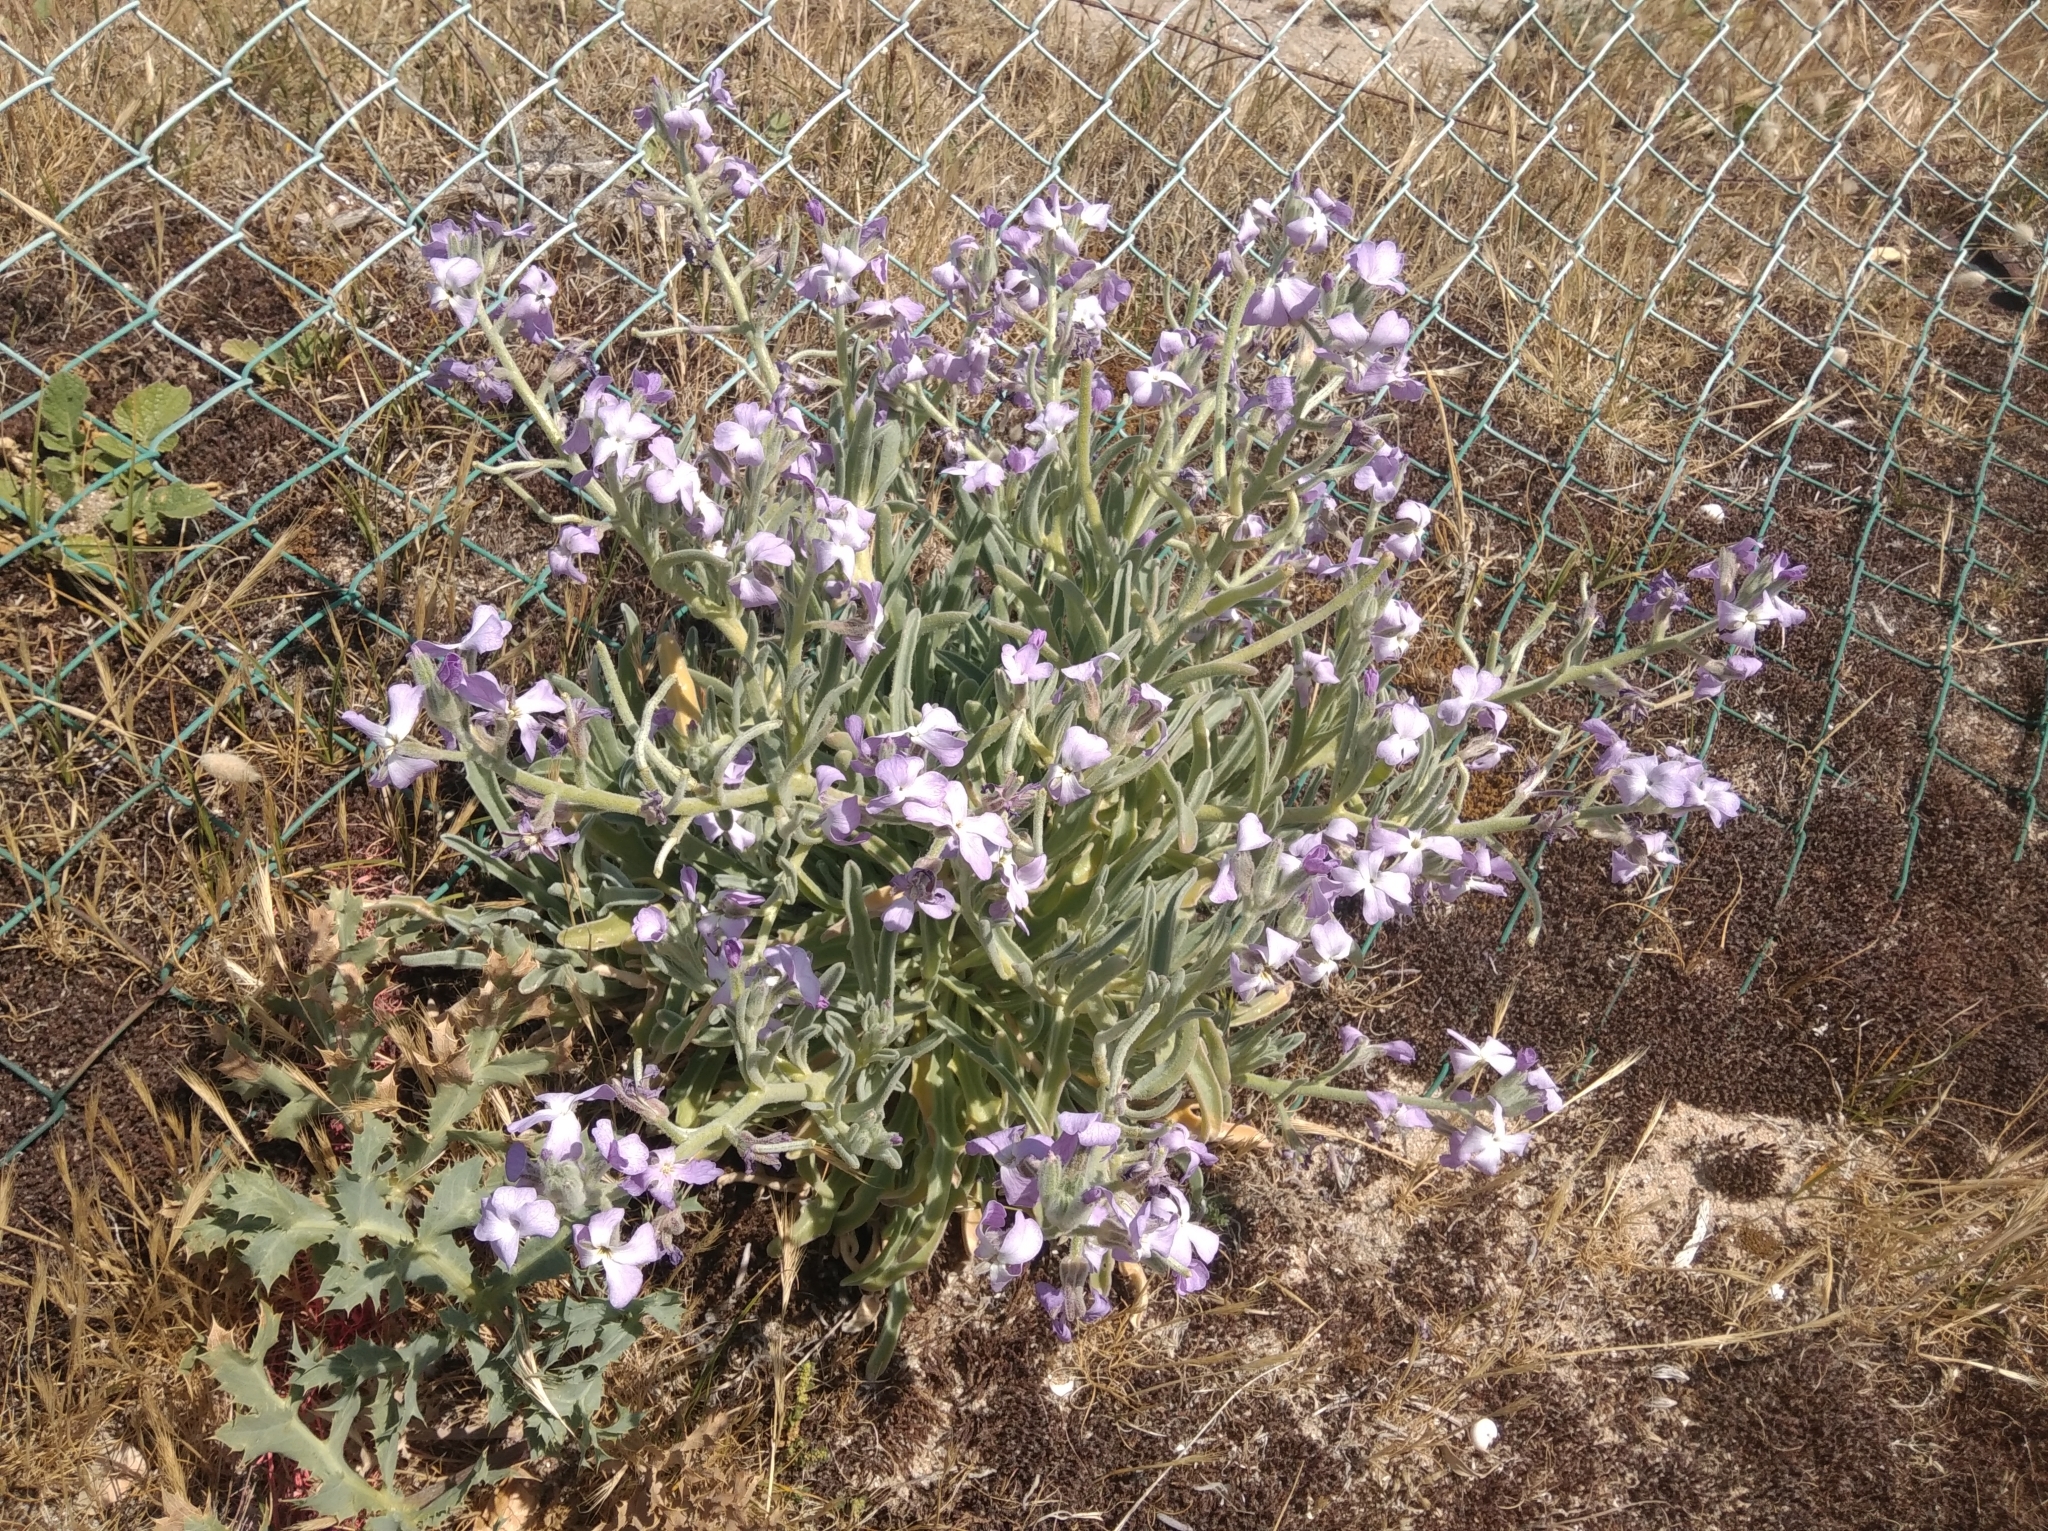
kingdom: Plantae
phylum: Tracheophyta
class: Magnoliopsida
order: Brassicales
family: Brassicaceae
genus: Matthiola
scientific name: Matthiola sinuata
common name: Sea stock
